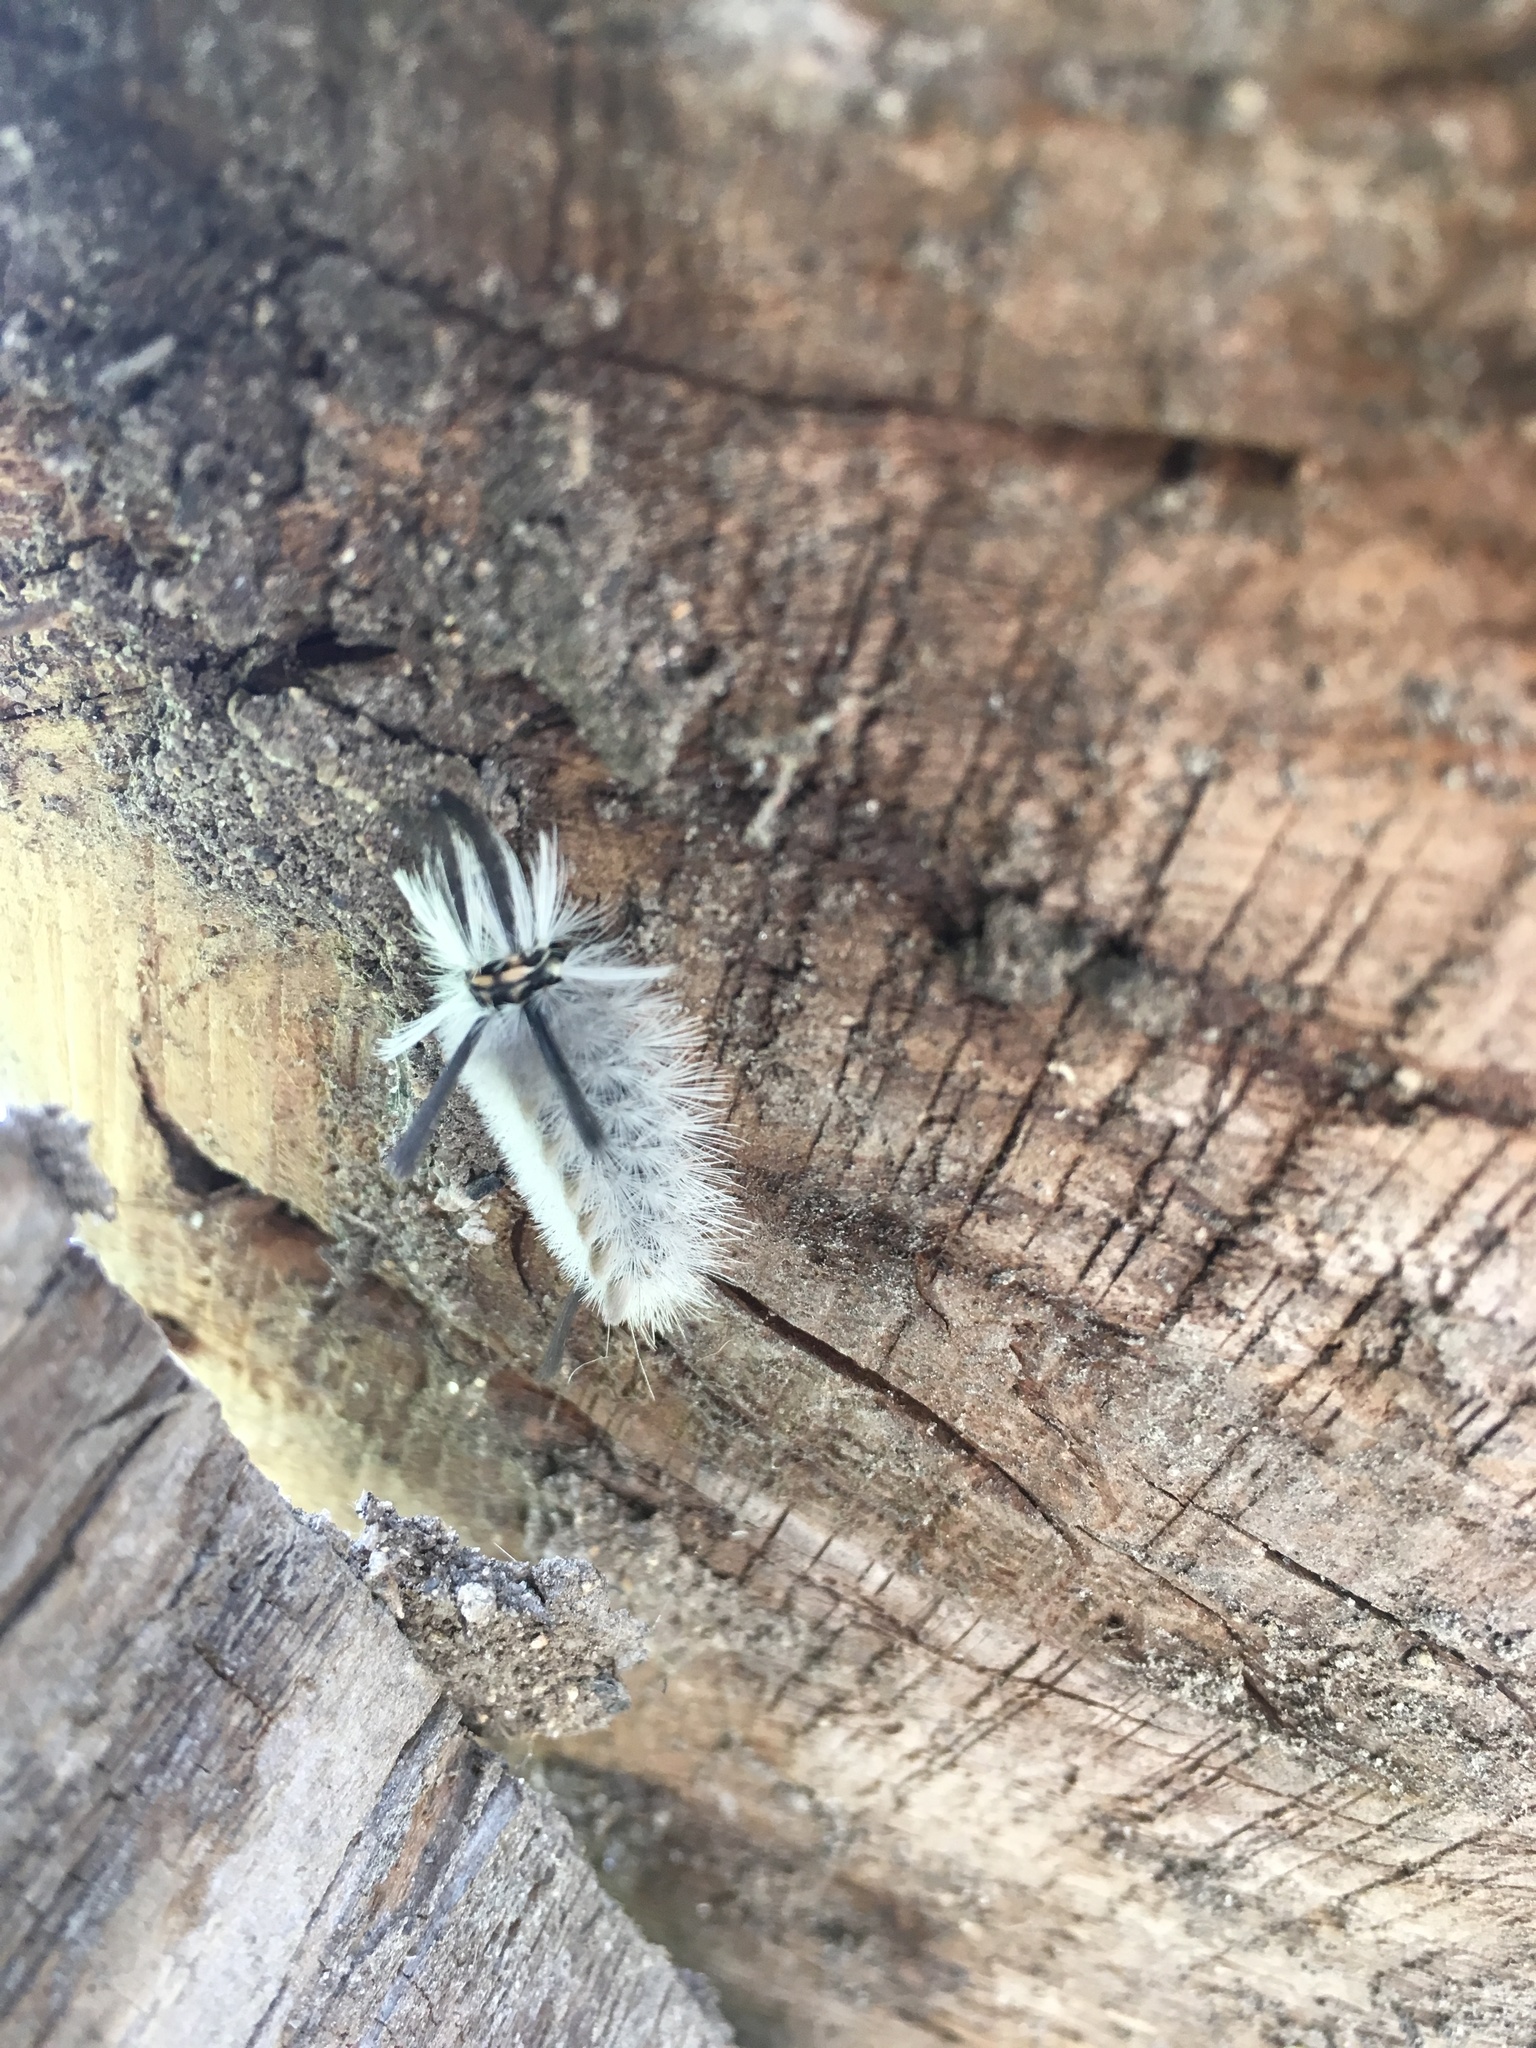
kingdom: Animalia
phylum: Arthropoda
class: Insecta
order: Lepidoptera
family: Erebidae
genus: Halysidota
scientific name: Halysidota tessellaris
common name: Banded tussock moth
